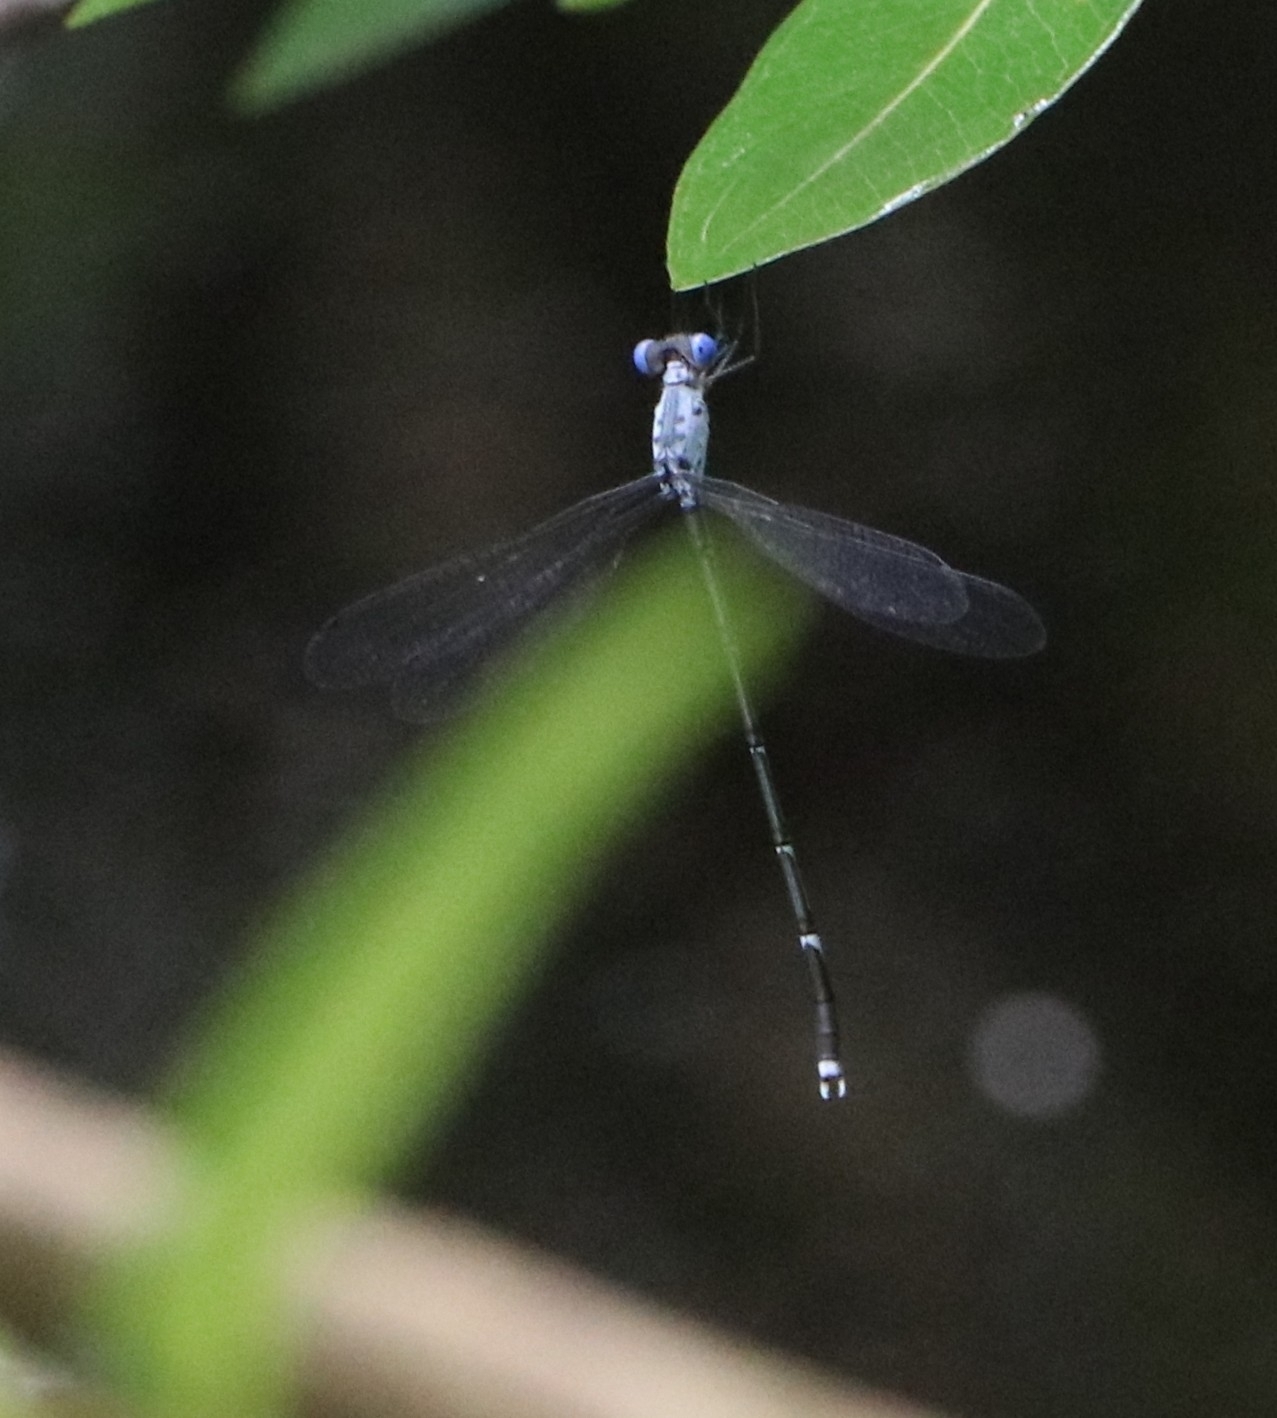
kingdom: Animalia
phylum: Arthropoda
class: Insecta
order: Odonata
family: Lestidae
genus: Lestes
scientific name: Lestes dorothea
